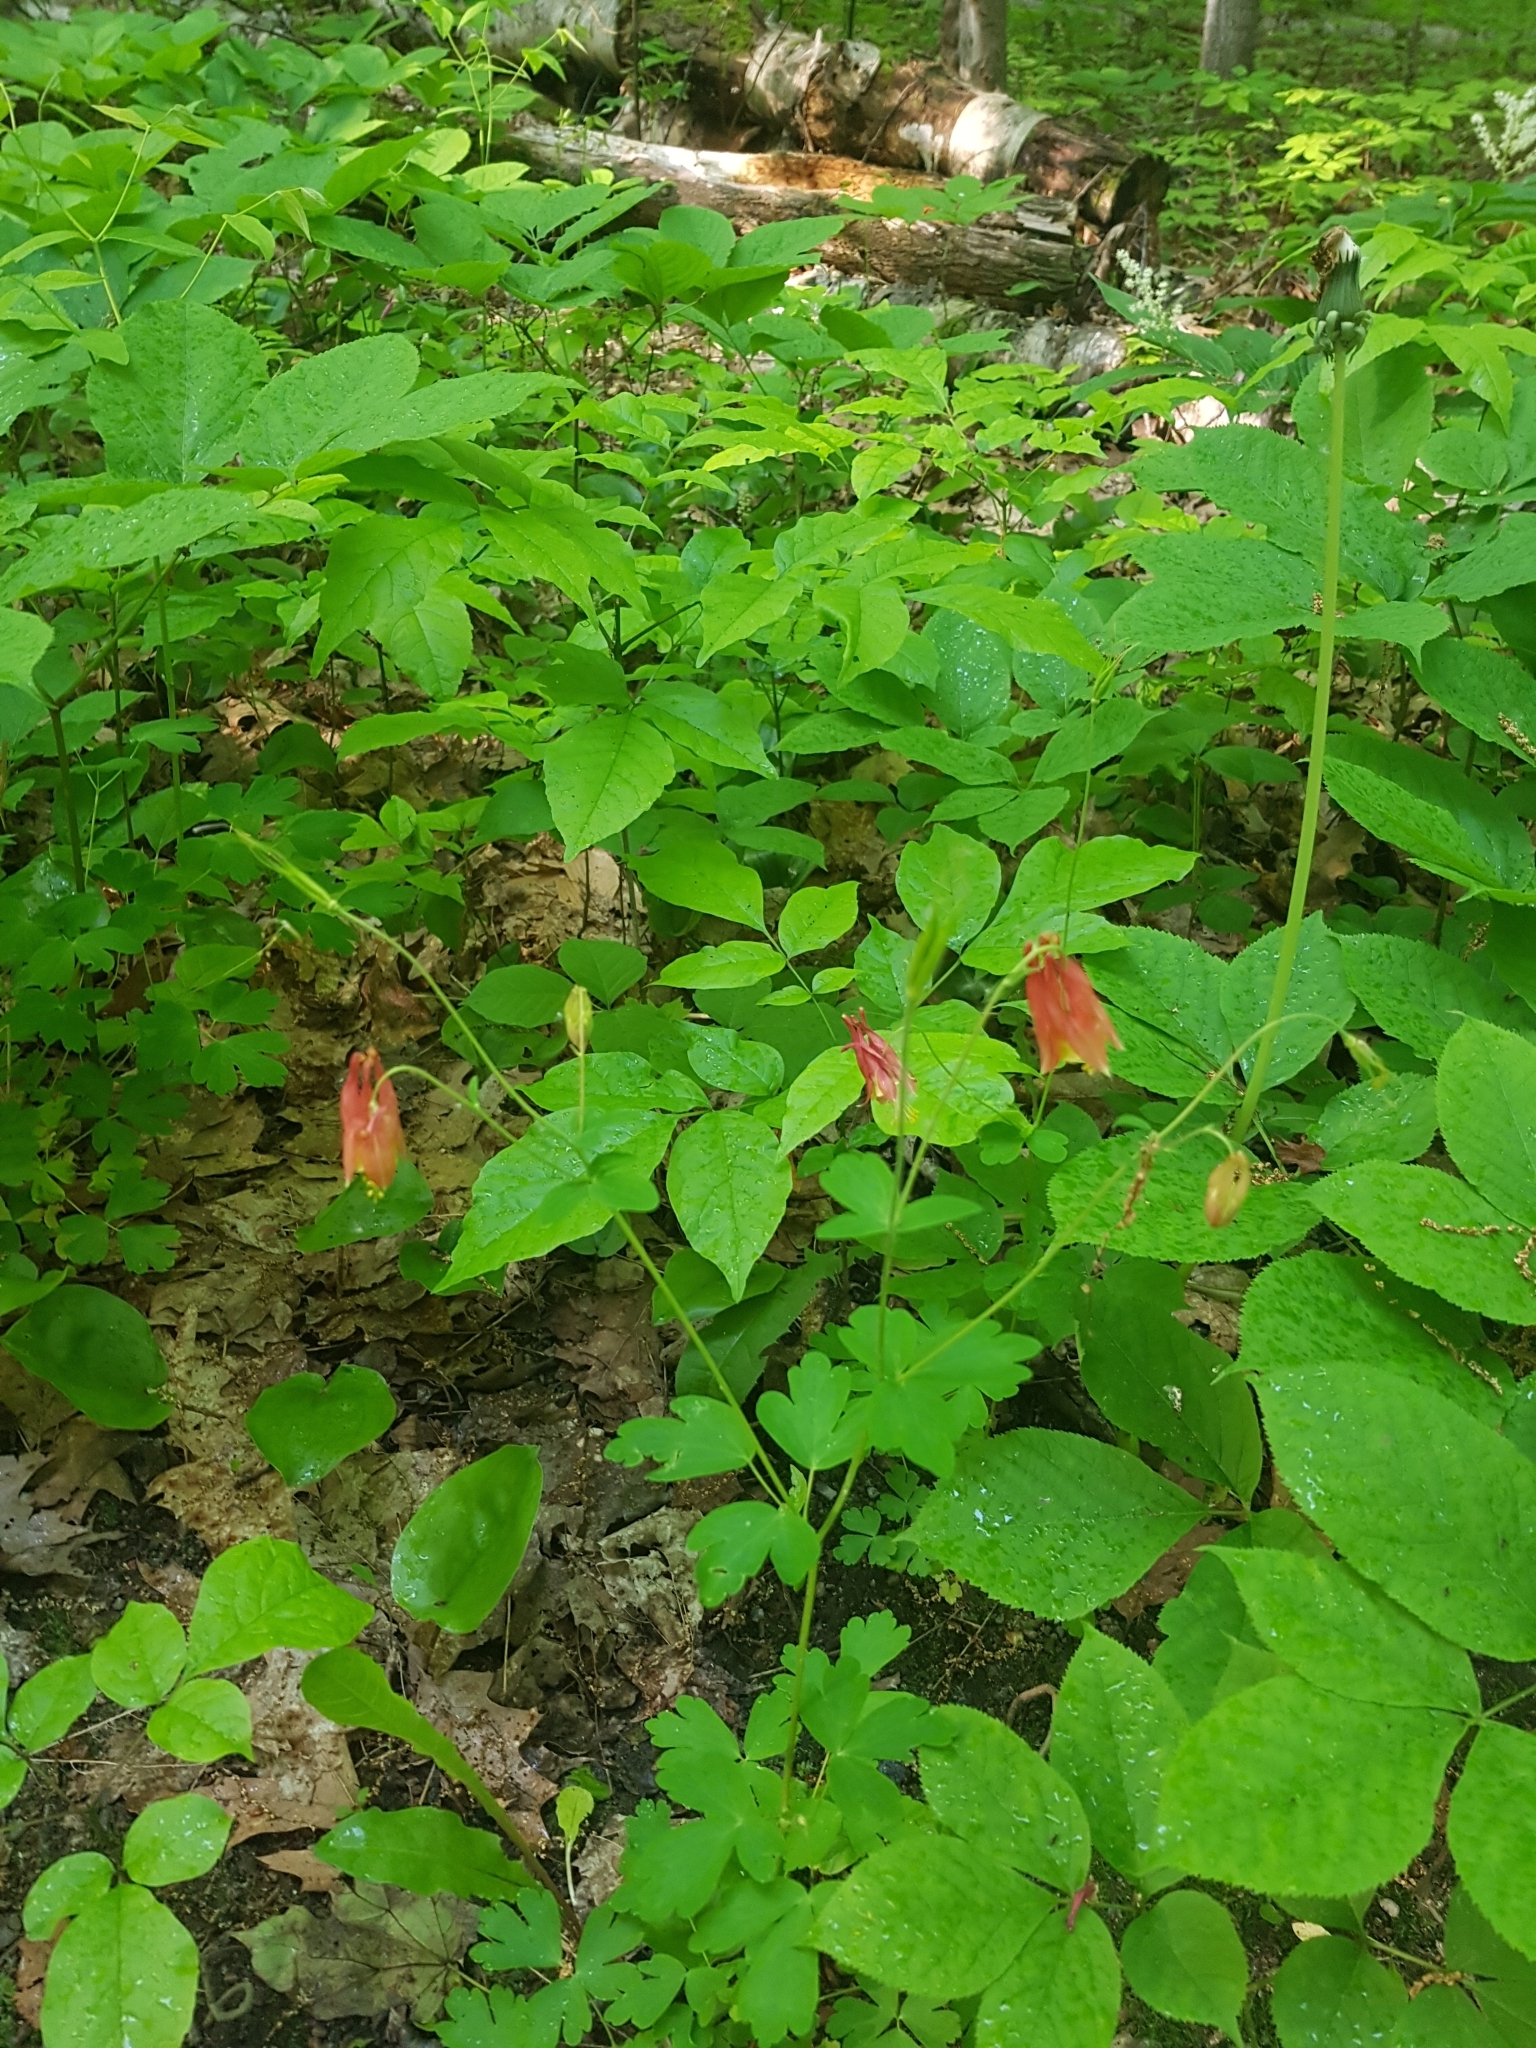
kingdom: Plantae
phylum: Tracheophyta
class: Magnoliopsida
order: Ranunculales
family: Ranunculaceae
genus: Aquilegia
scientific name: Aquilegia canadensis
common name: American columbine
